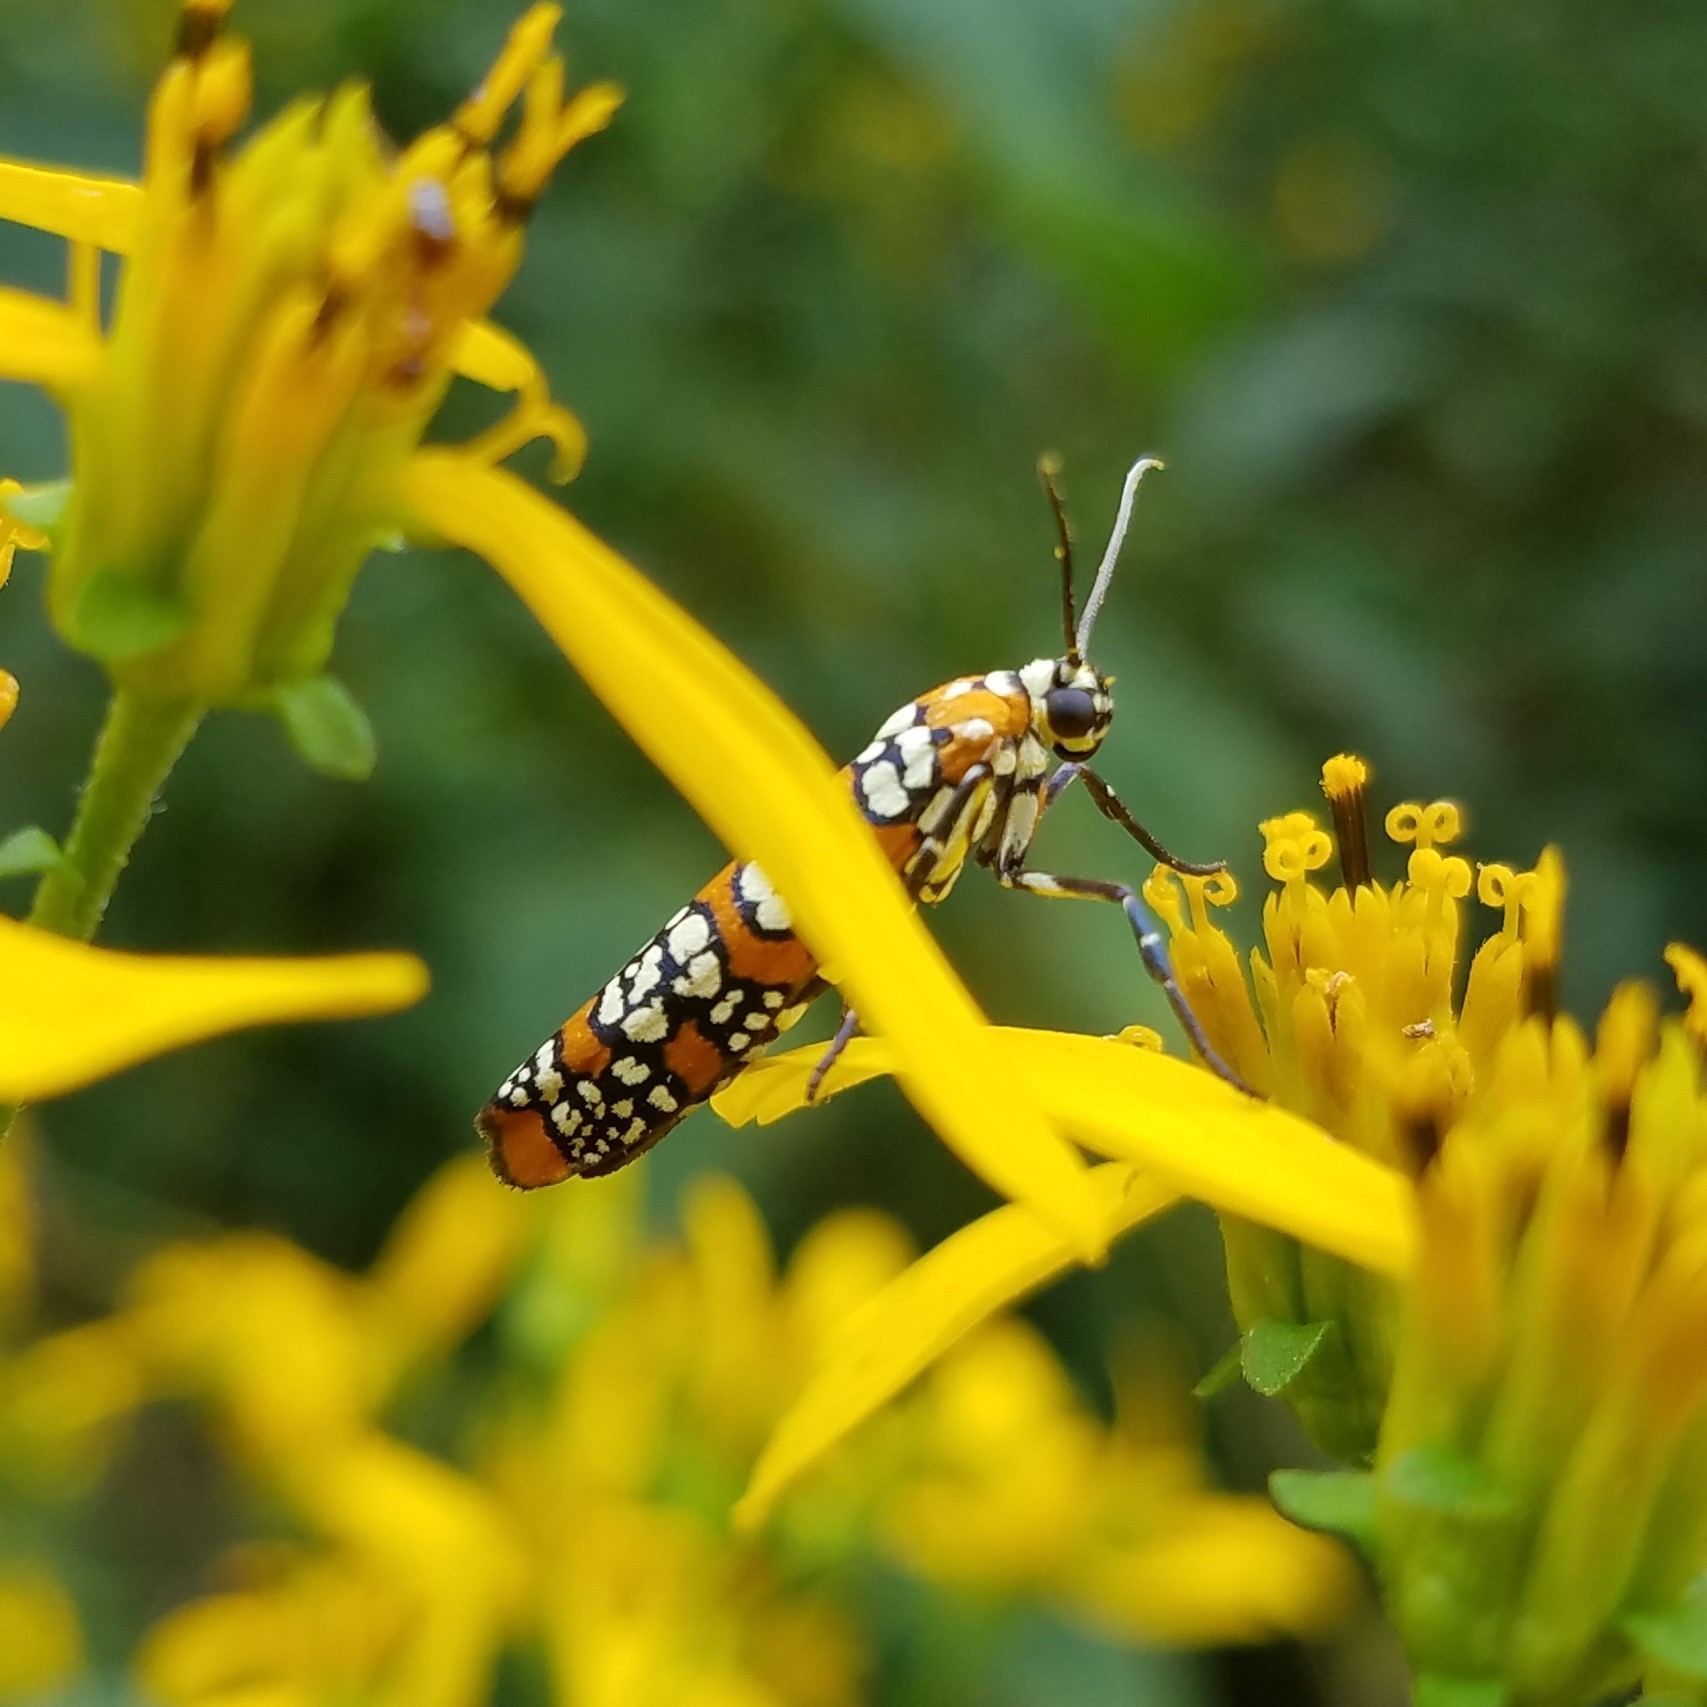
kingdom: Animalia
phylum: Arthropoda
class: Insecta
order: Lepidoptera
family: Attevidae
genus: Atteva
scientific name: Atteva punctella
